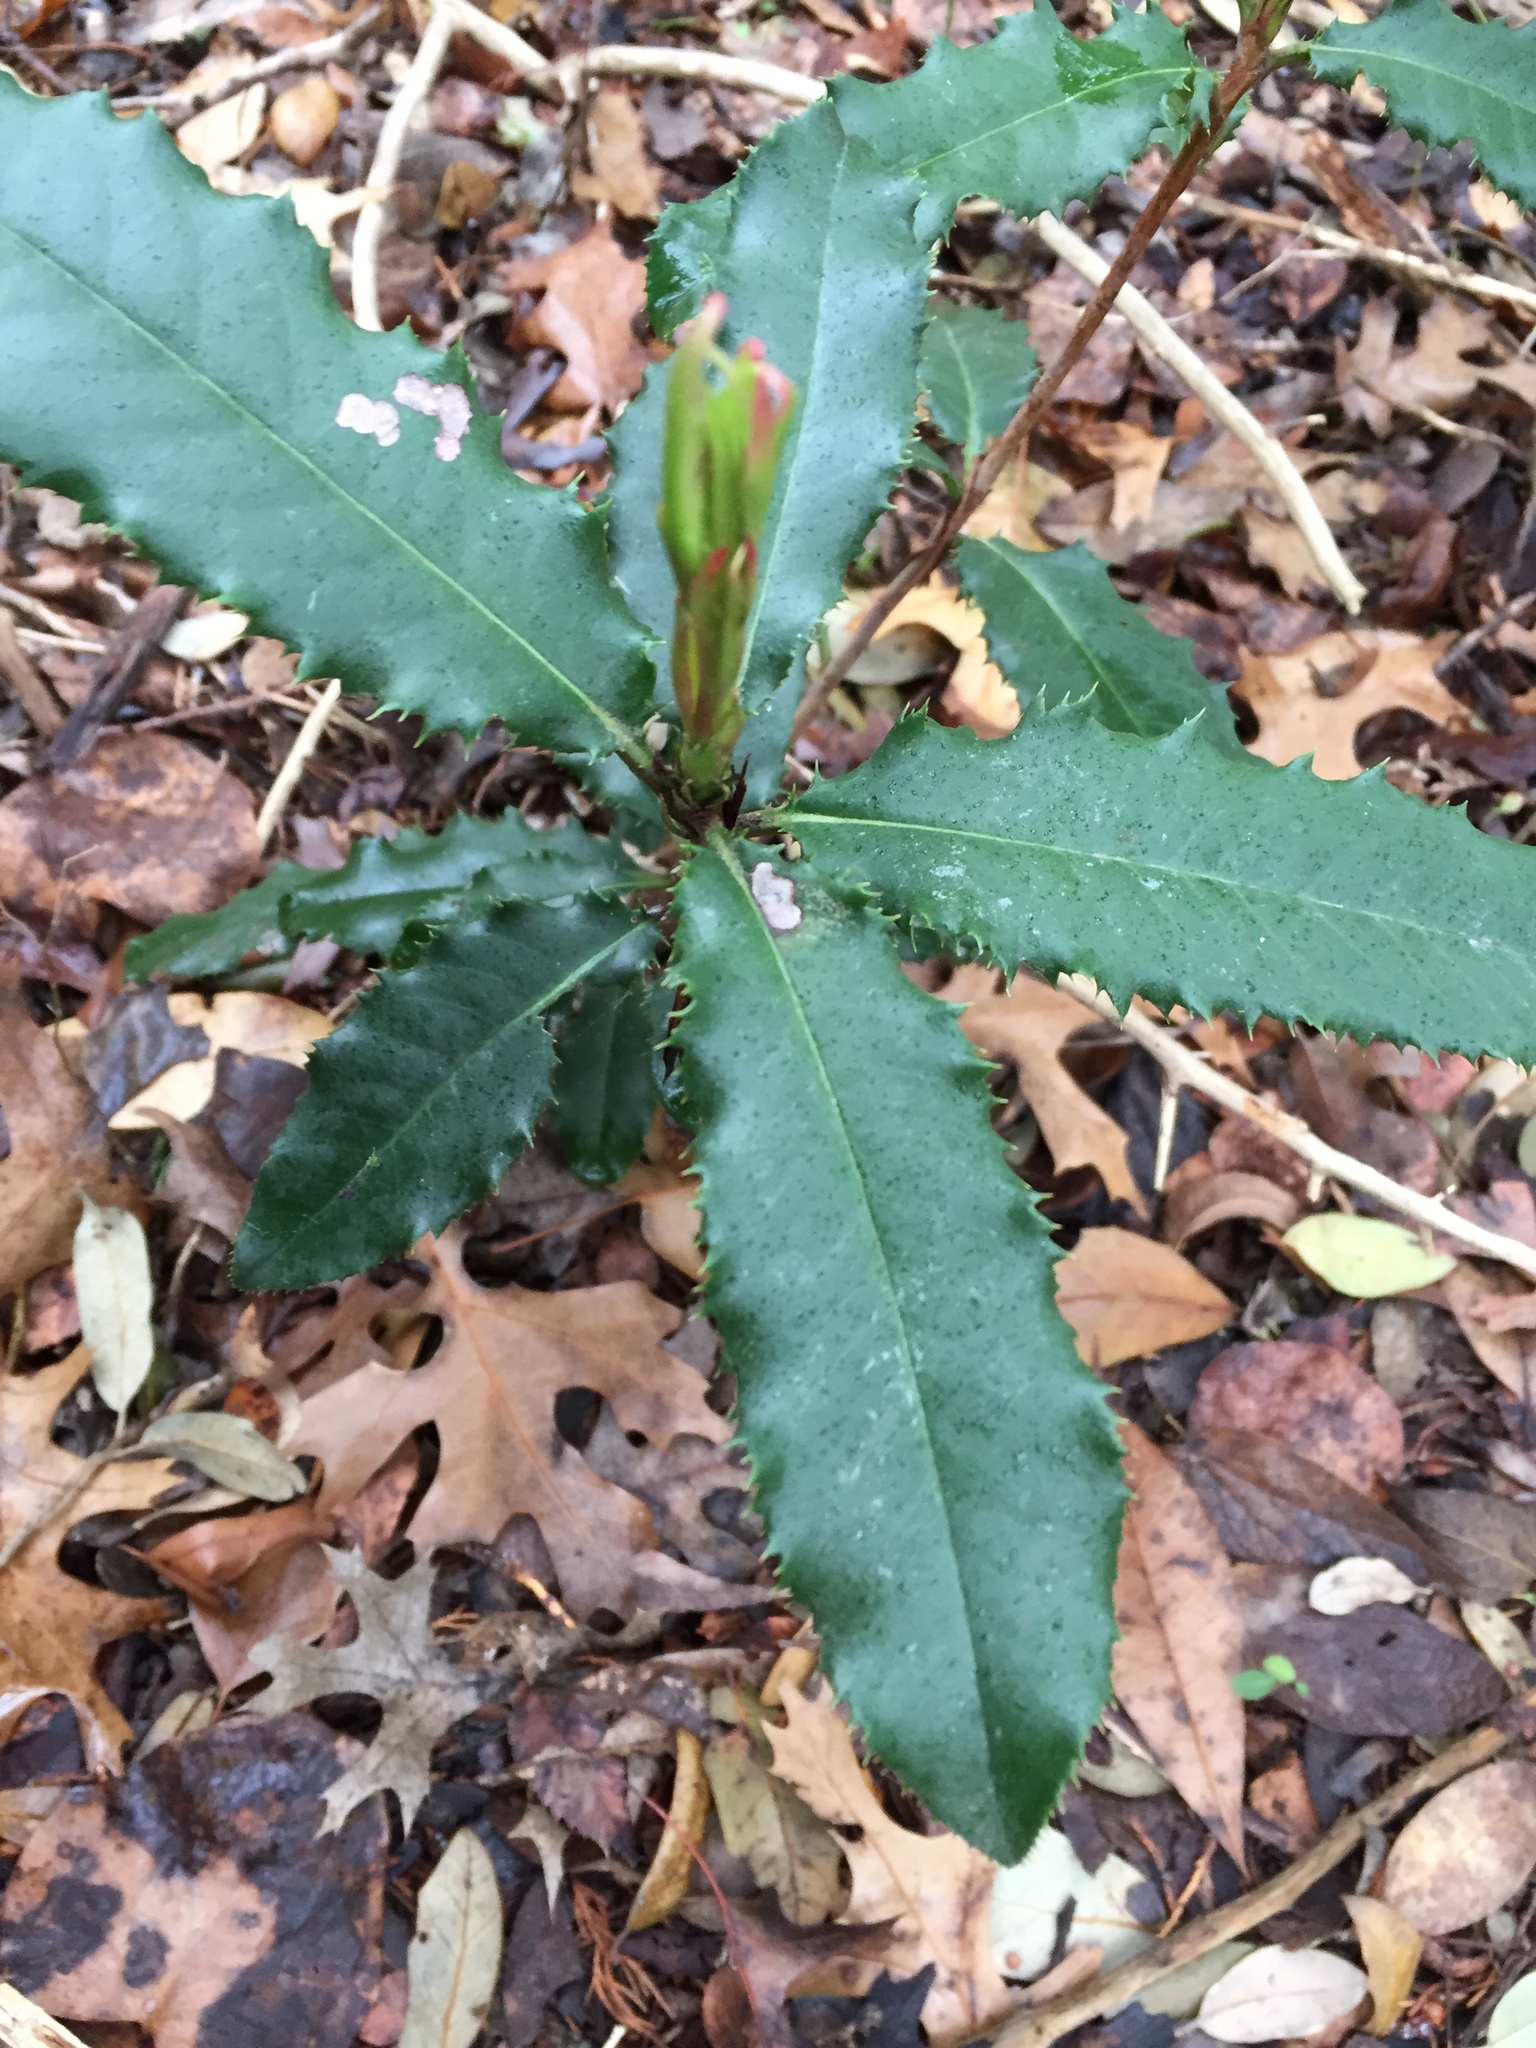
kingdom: Plantae
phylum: Tracheophyta
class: Magnoliopsida
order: Rosales
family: Rosaceae
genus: Photinia
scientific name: Photinia serratifolia
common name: Taiwanese photinia
